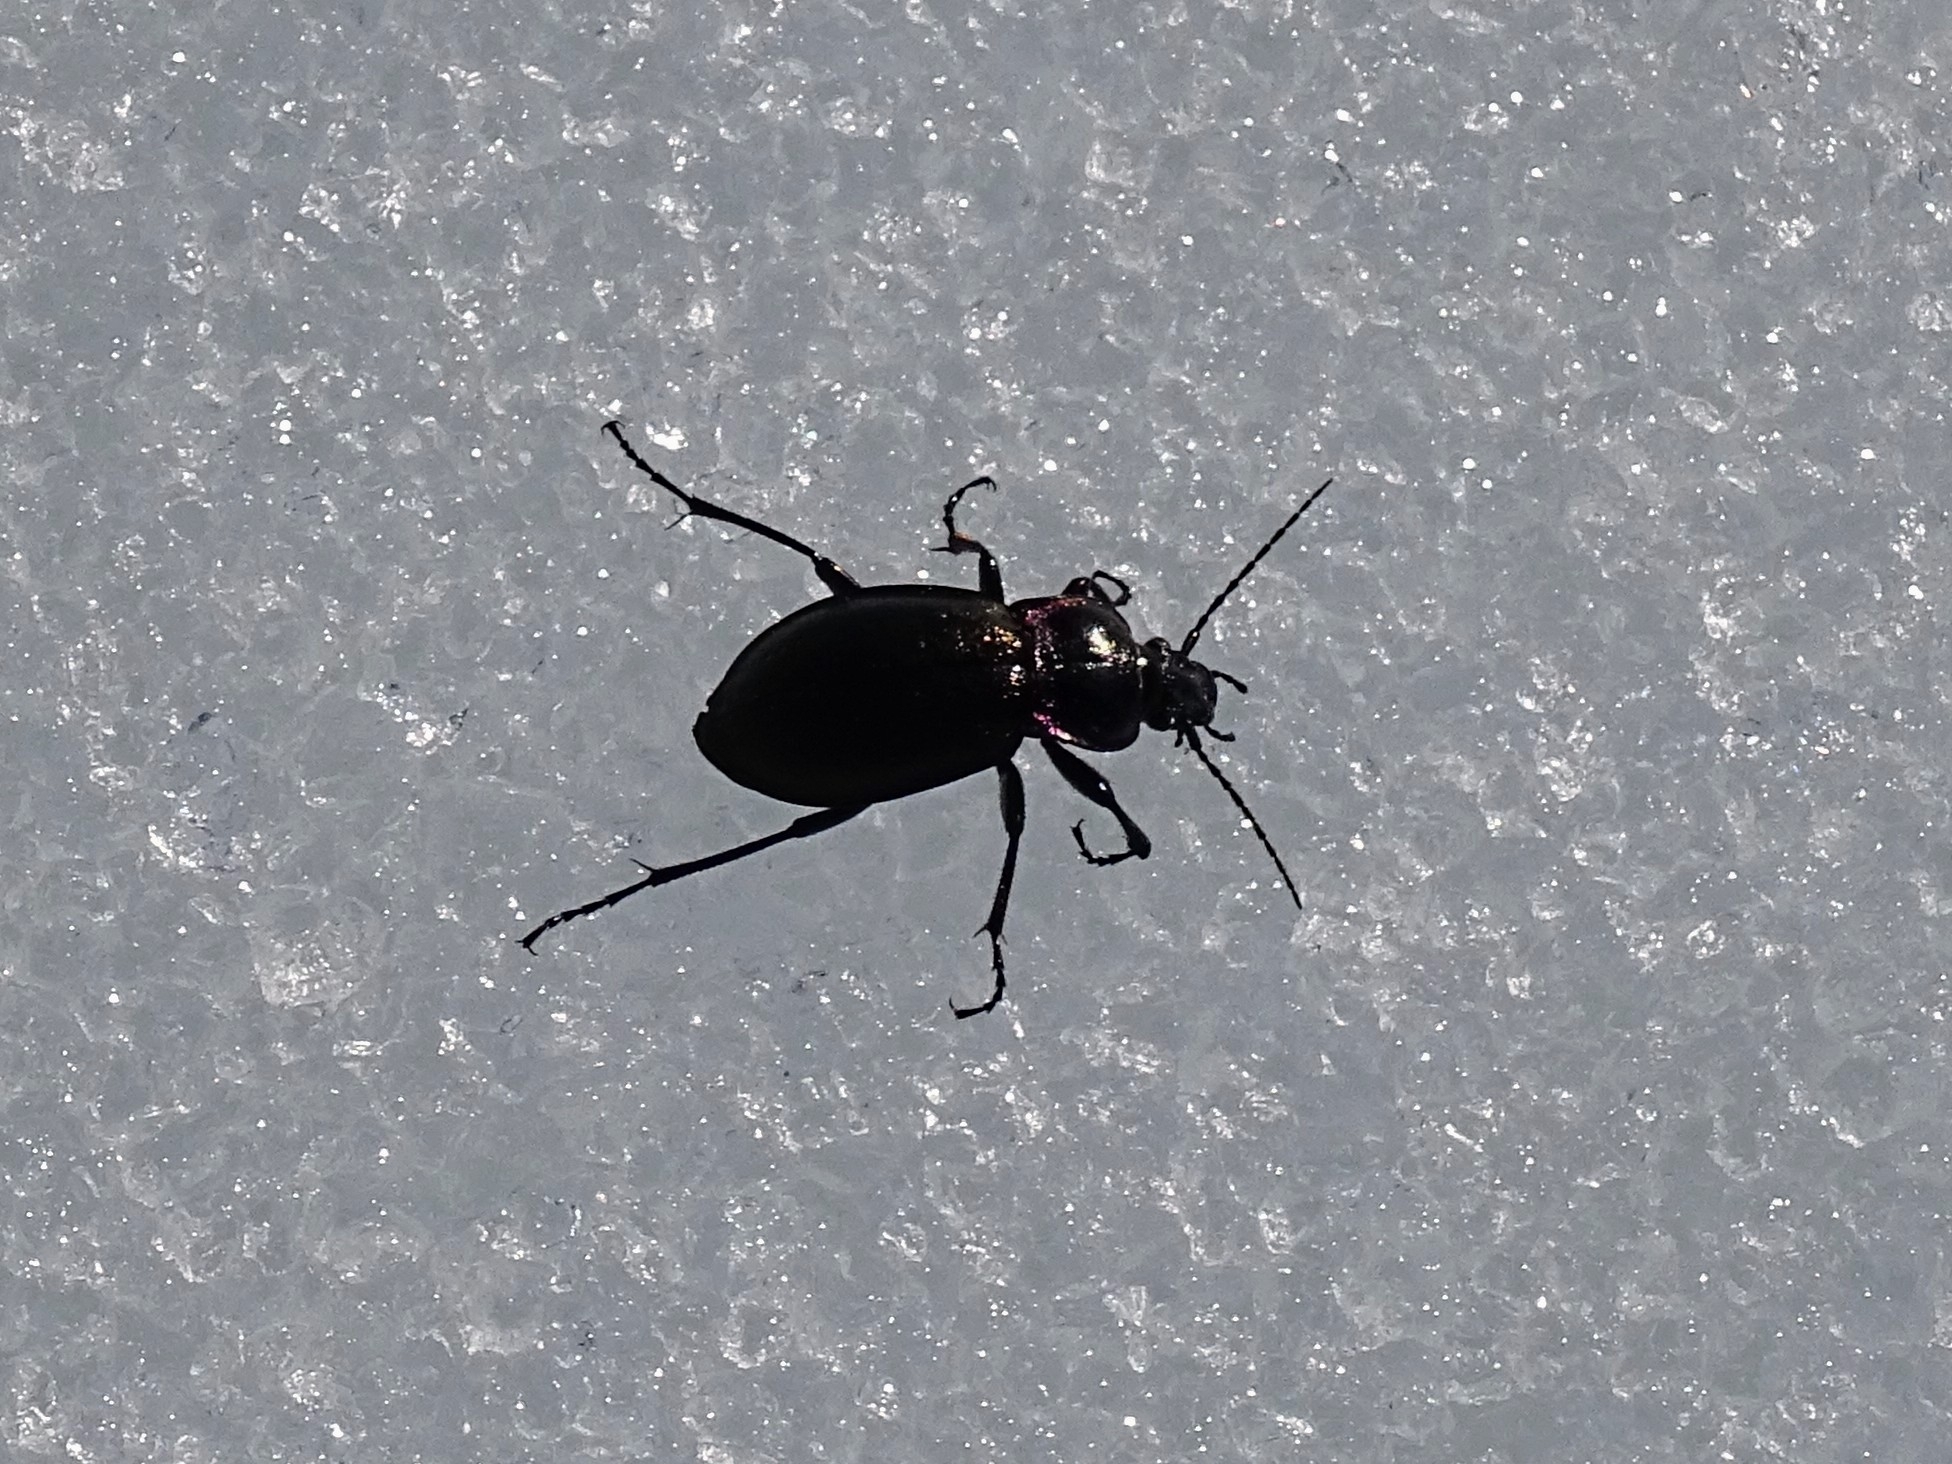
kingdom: Animalia
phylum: Arthropoda
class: Insecta
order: Coleoptera
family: Carabidae
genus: Carabus
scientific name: Carabus nemoralis
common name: European ground beetle
